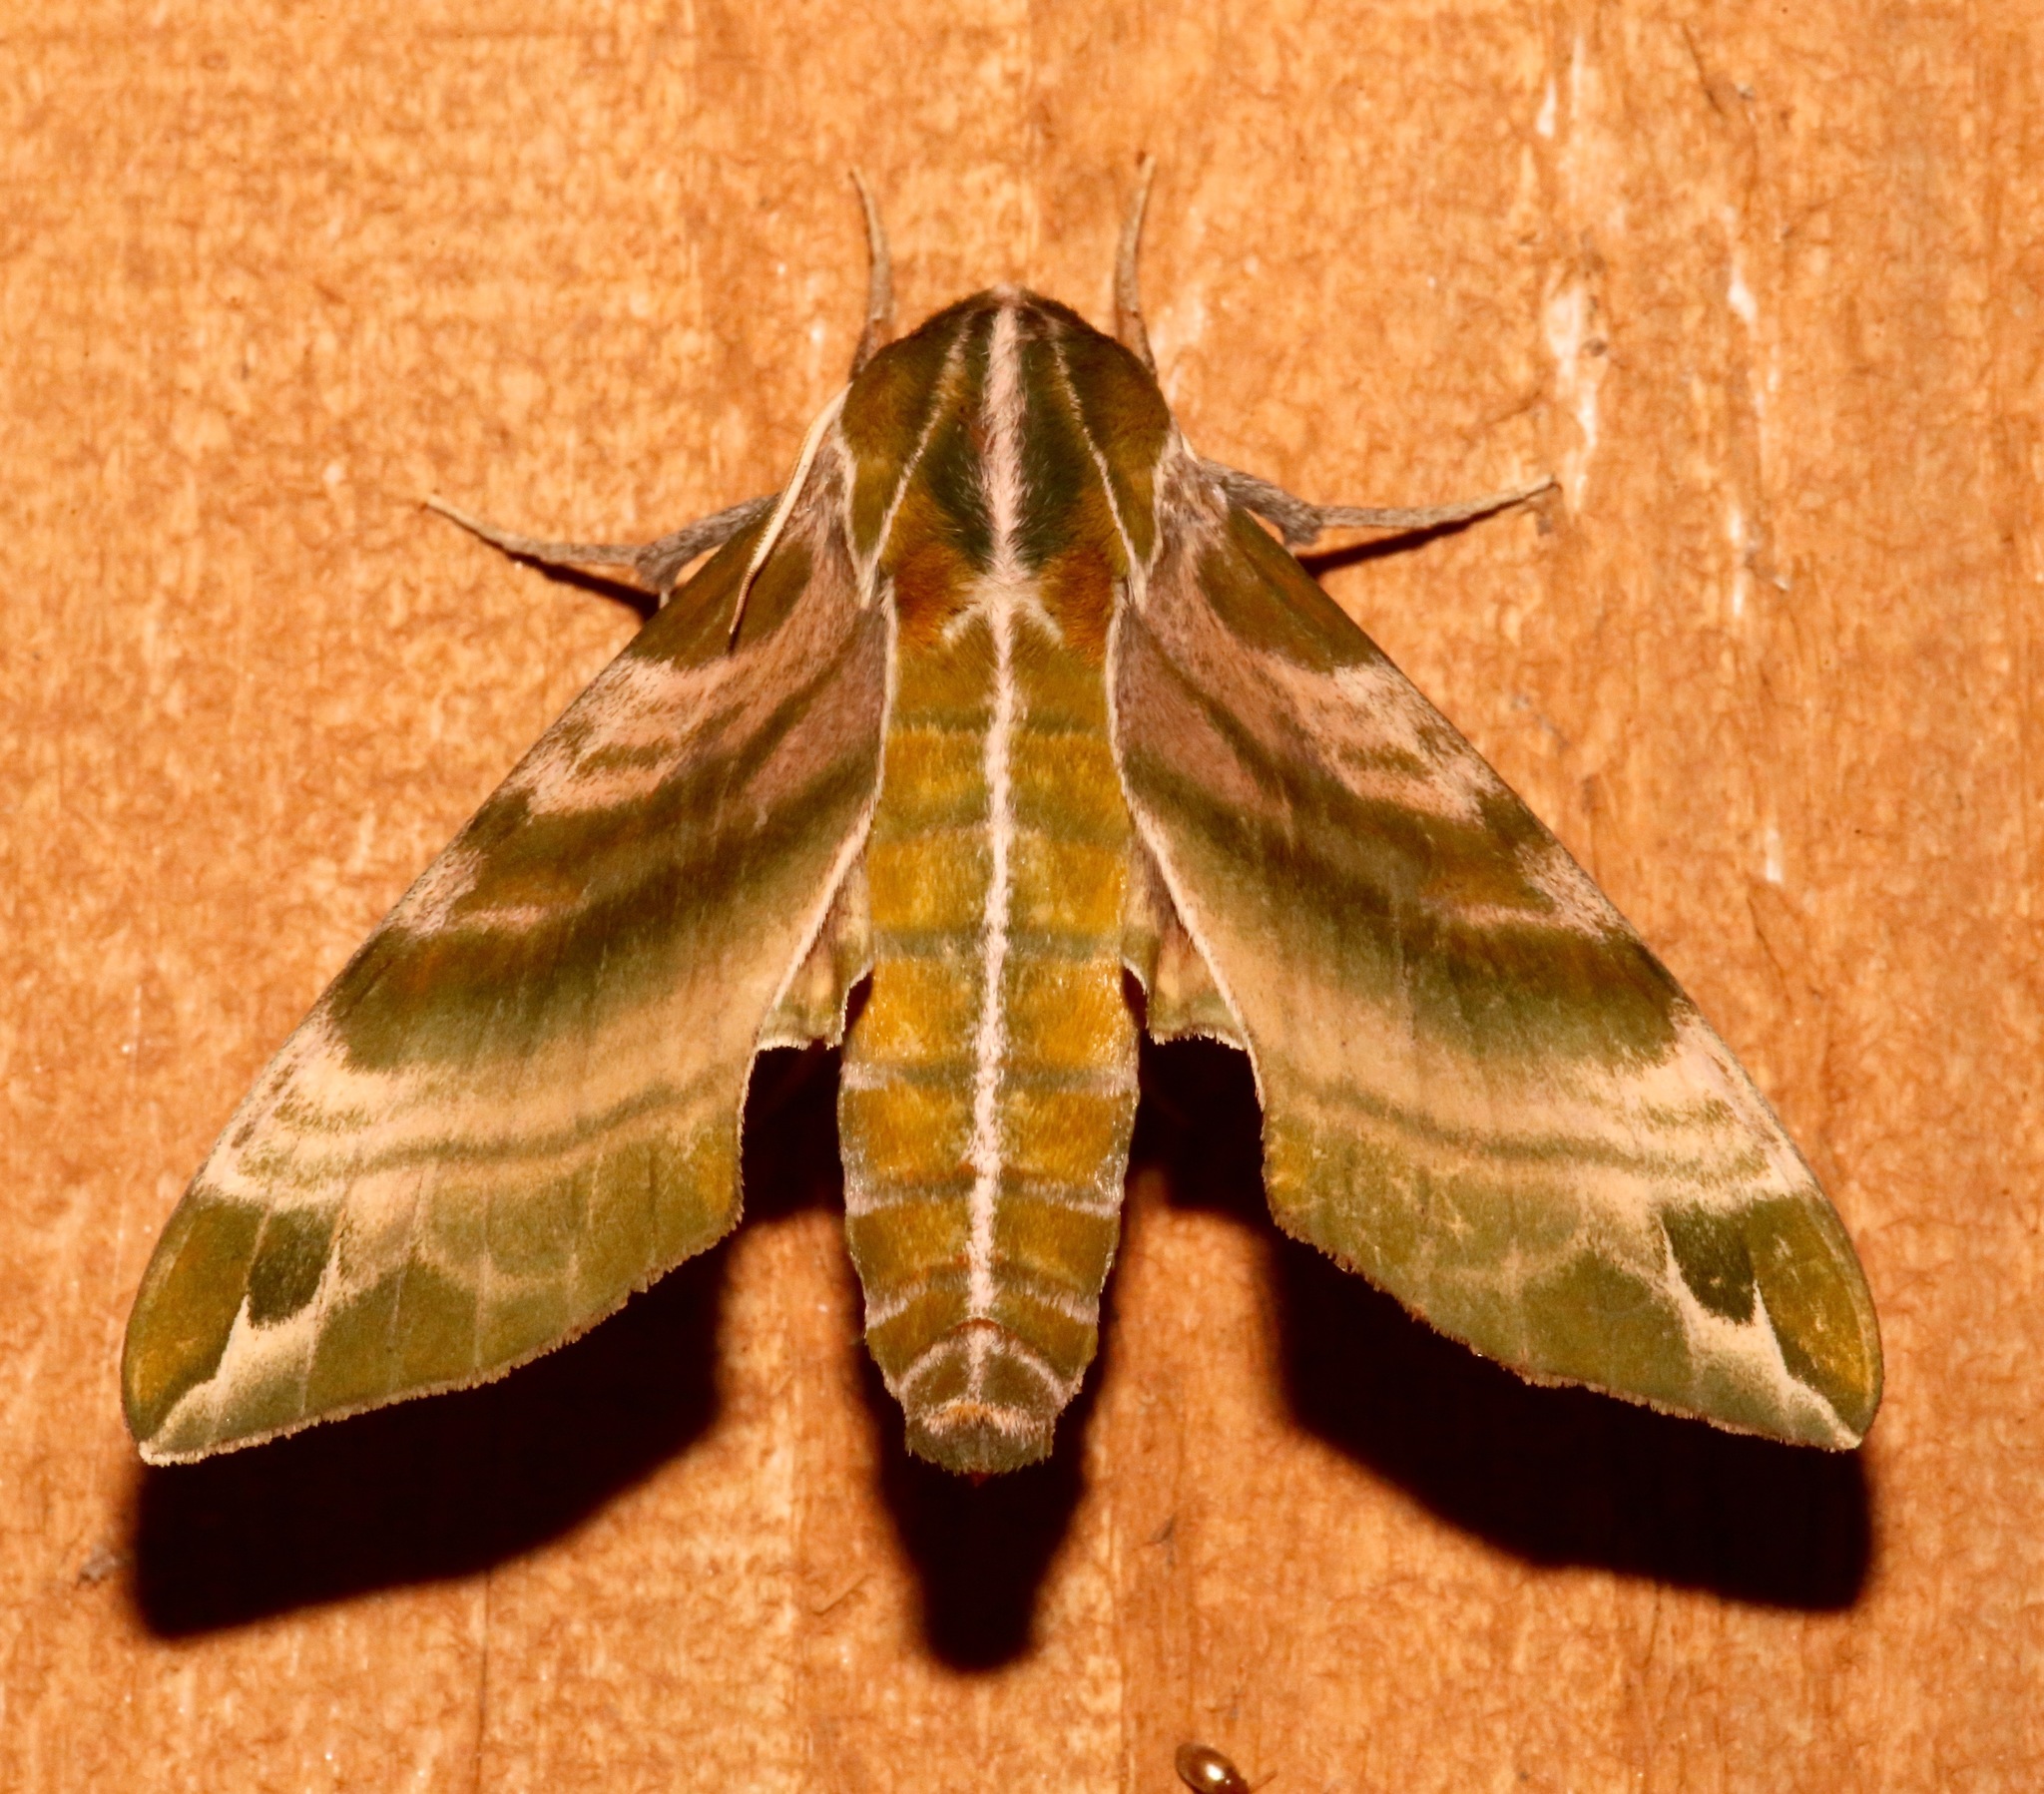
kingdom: Animalia
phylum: Arthropoda
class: Insecta
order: Lepidoptera
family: Sphingidae
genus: Darapsa
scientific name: Darapsa versicolor
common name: Hydrangea sphinx
